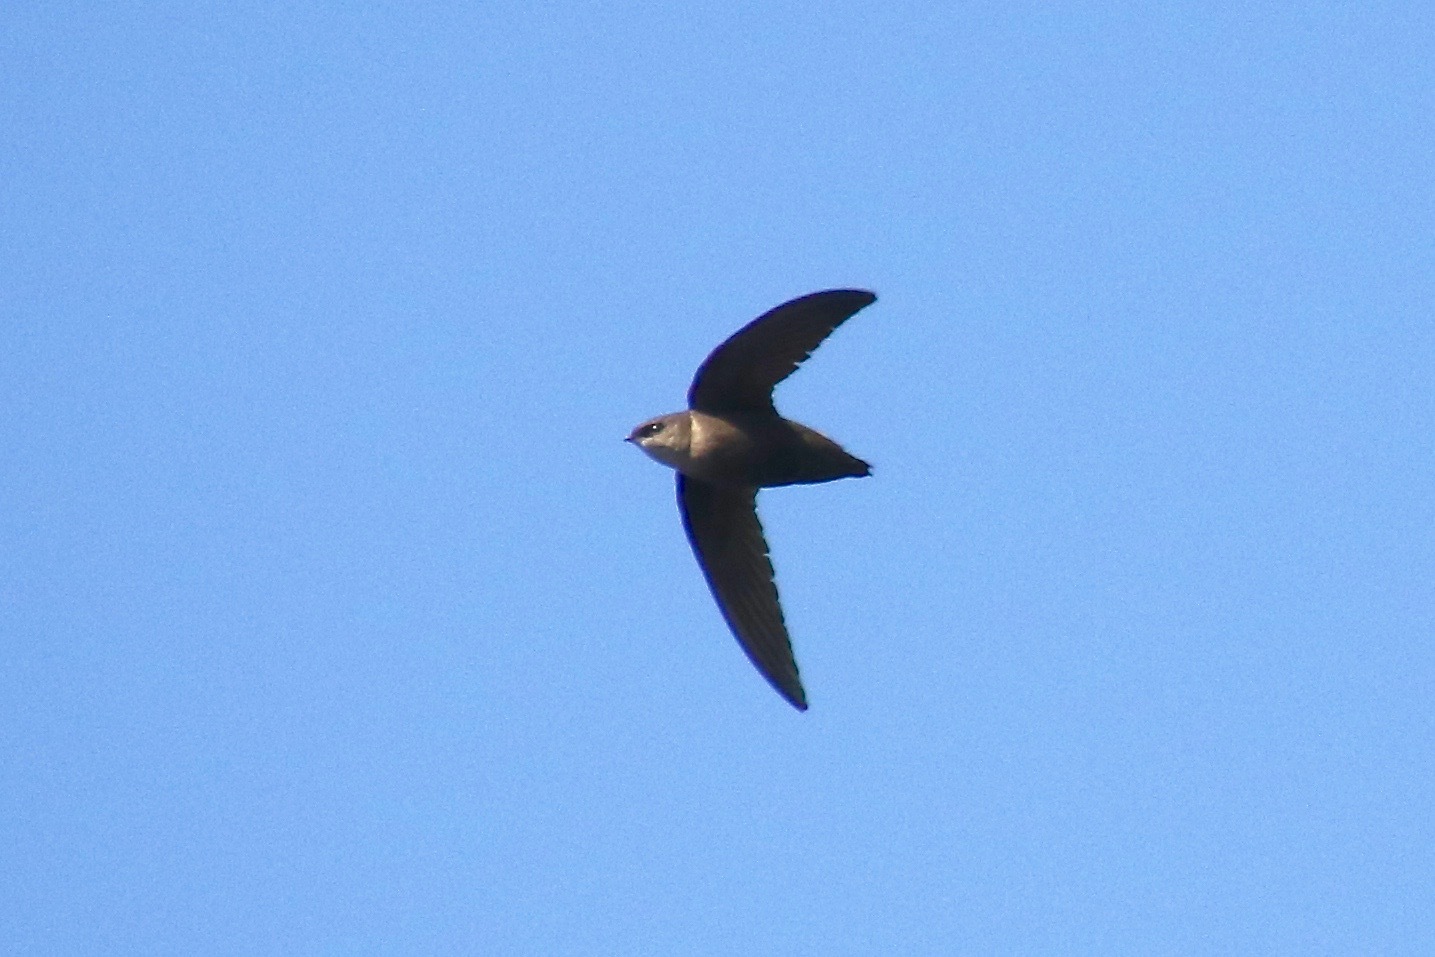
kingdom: Animalia
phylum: Chordata
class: Aves
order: Apodiformes
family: Apodidae
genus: Chaetura
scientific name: Chaetura pelagica
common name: Chimney swift
